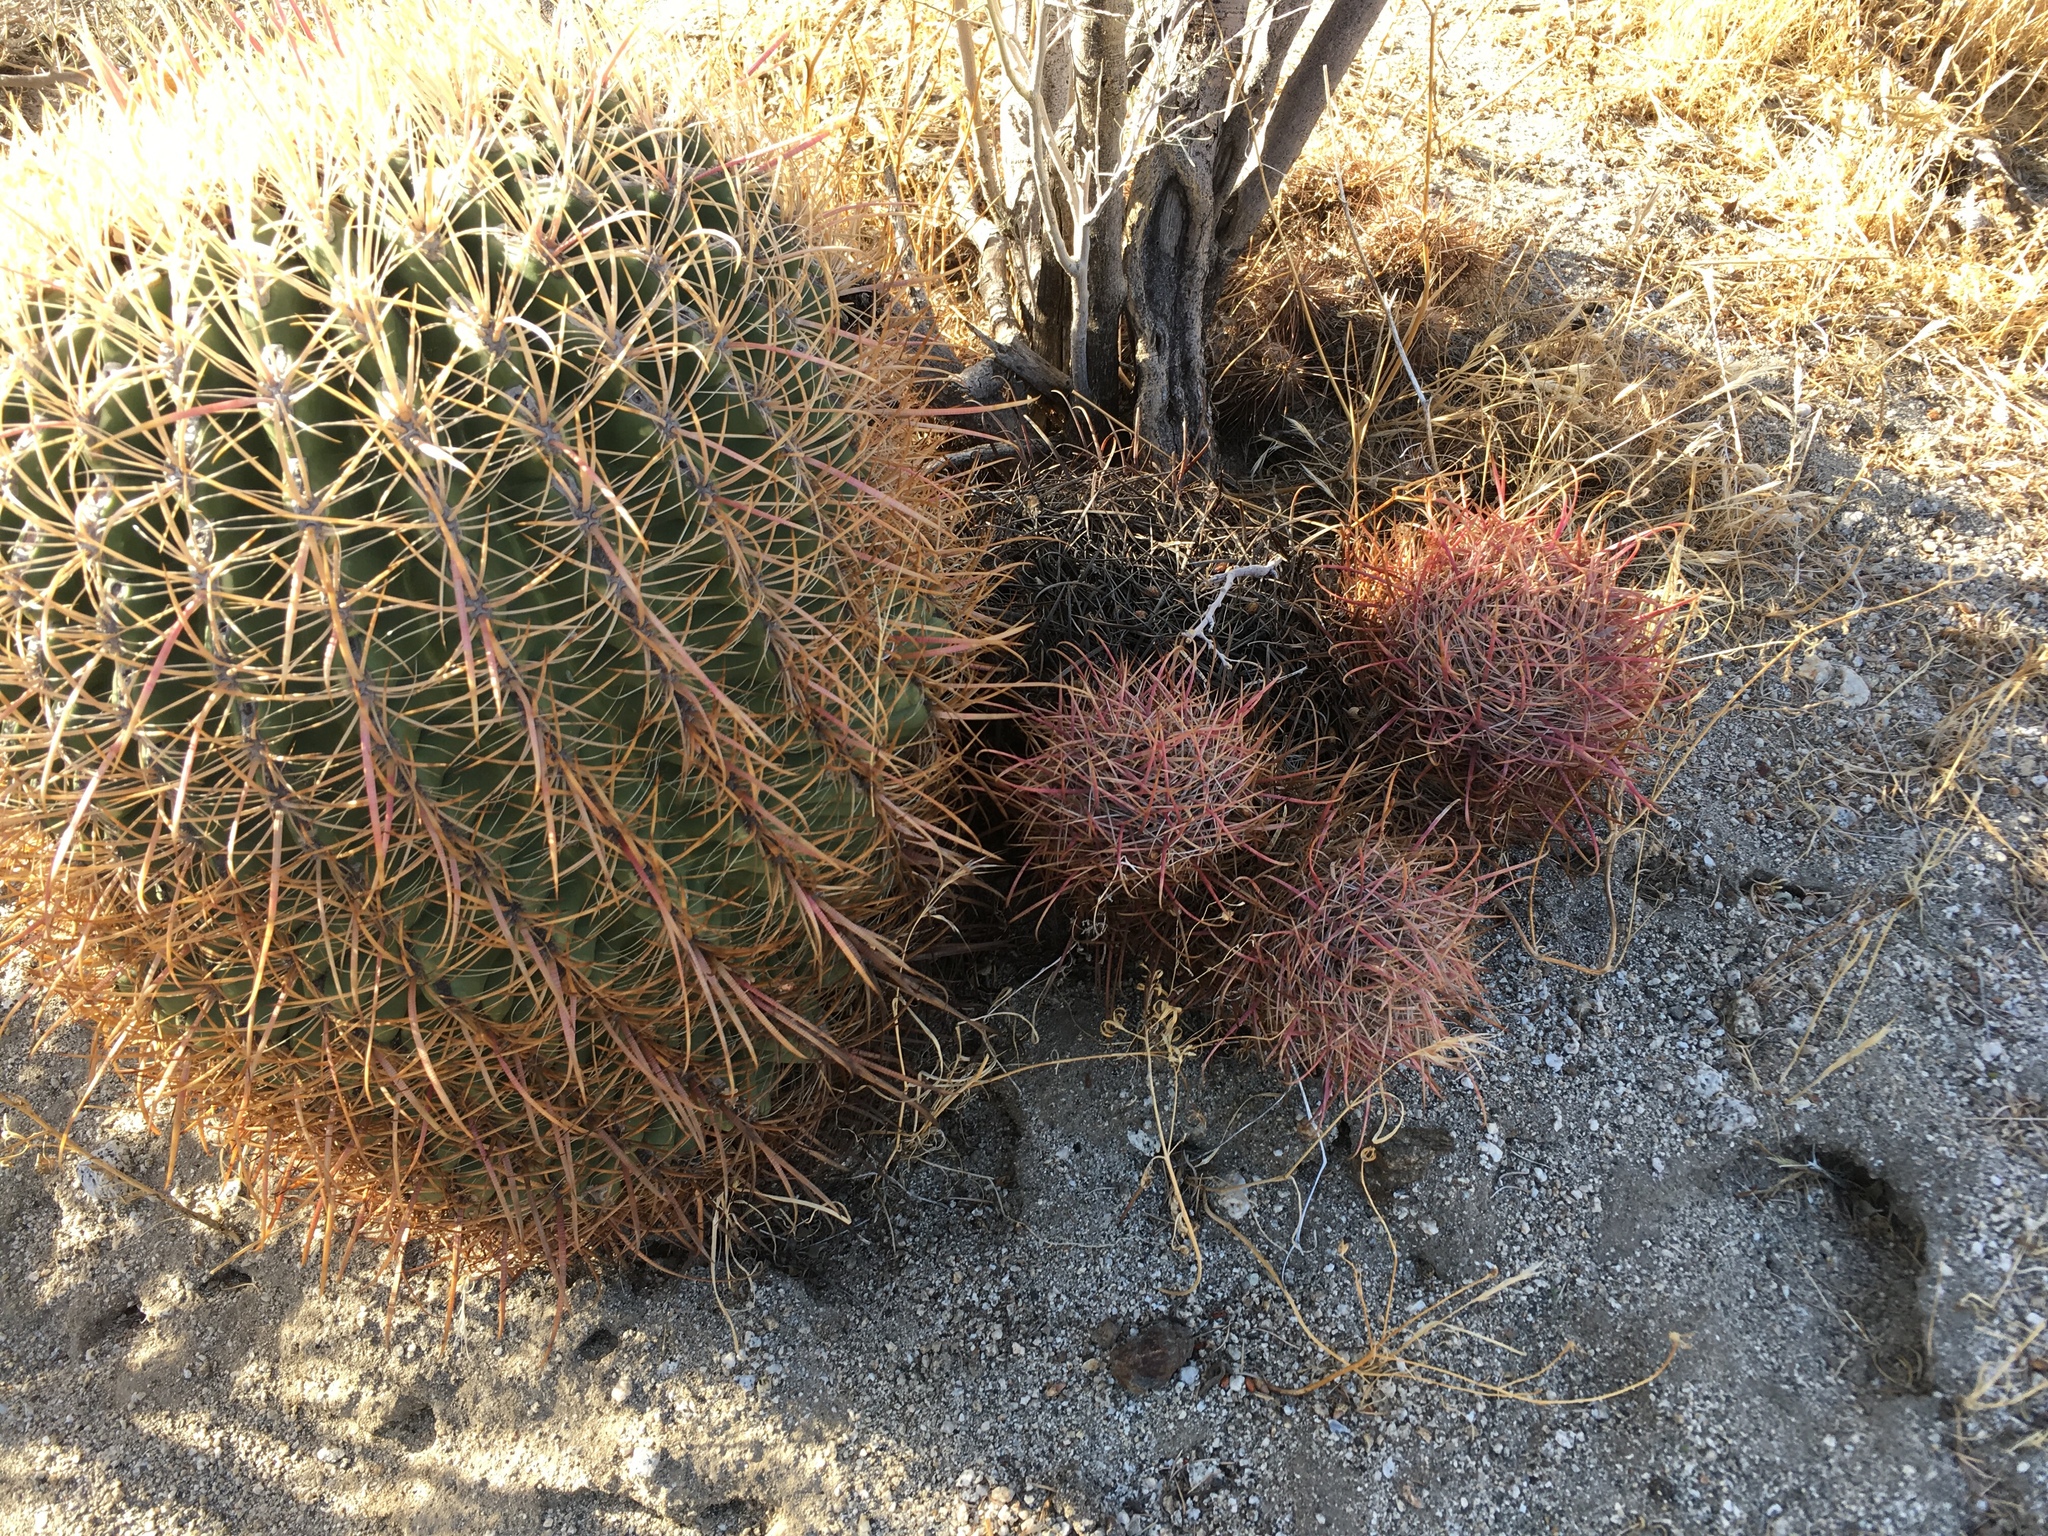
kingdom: Plantae
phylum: Tracheophyta
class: Magnoliopsida
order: Caryophyllales
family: Cactaceae
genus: Ferocactus
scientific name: Ferocactus cylindraceus
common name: California barrel cactus
